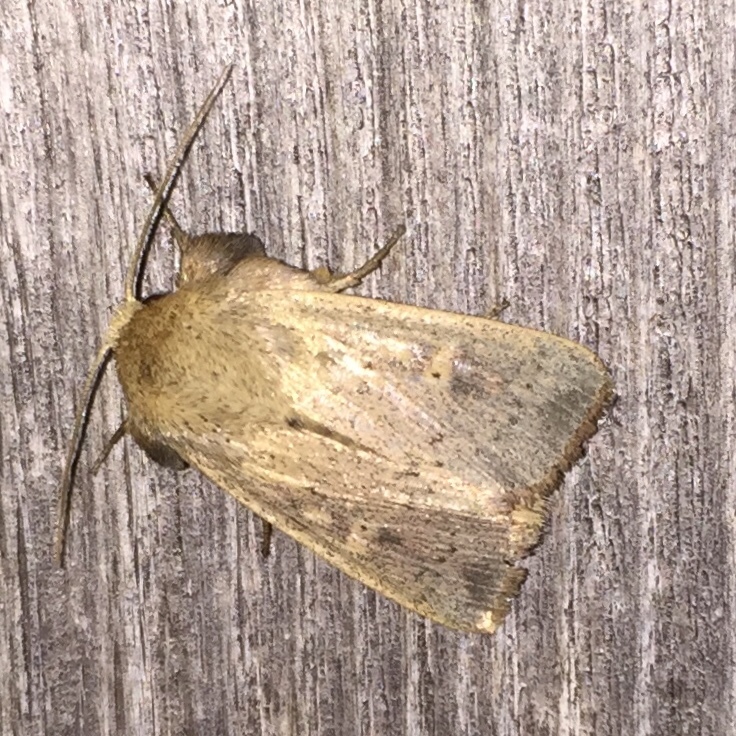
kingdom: Animalia
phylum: Arthropoda
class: Insecta
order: Lepidoptera
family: Noctuidae
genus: Leucania
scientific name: Leucania ursula
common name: Ursula wainscot
